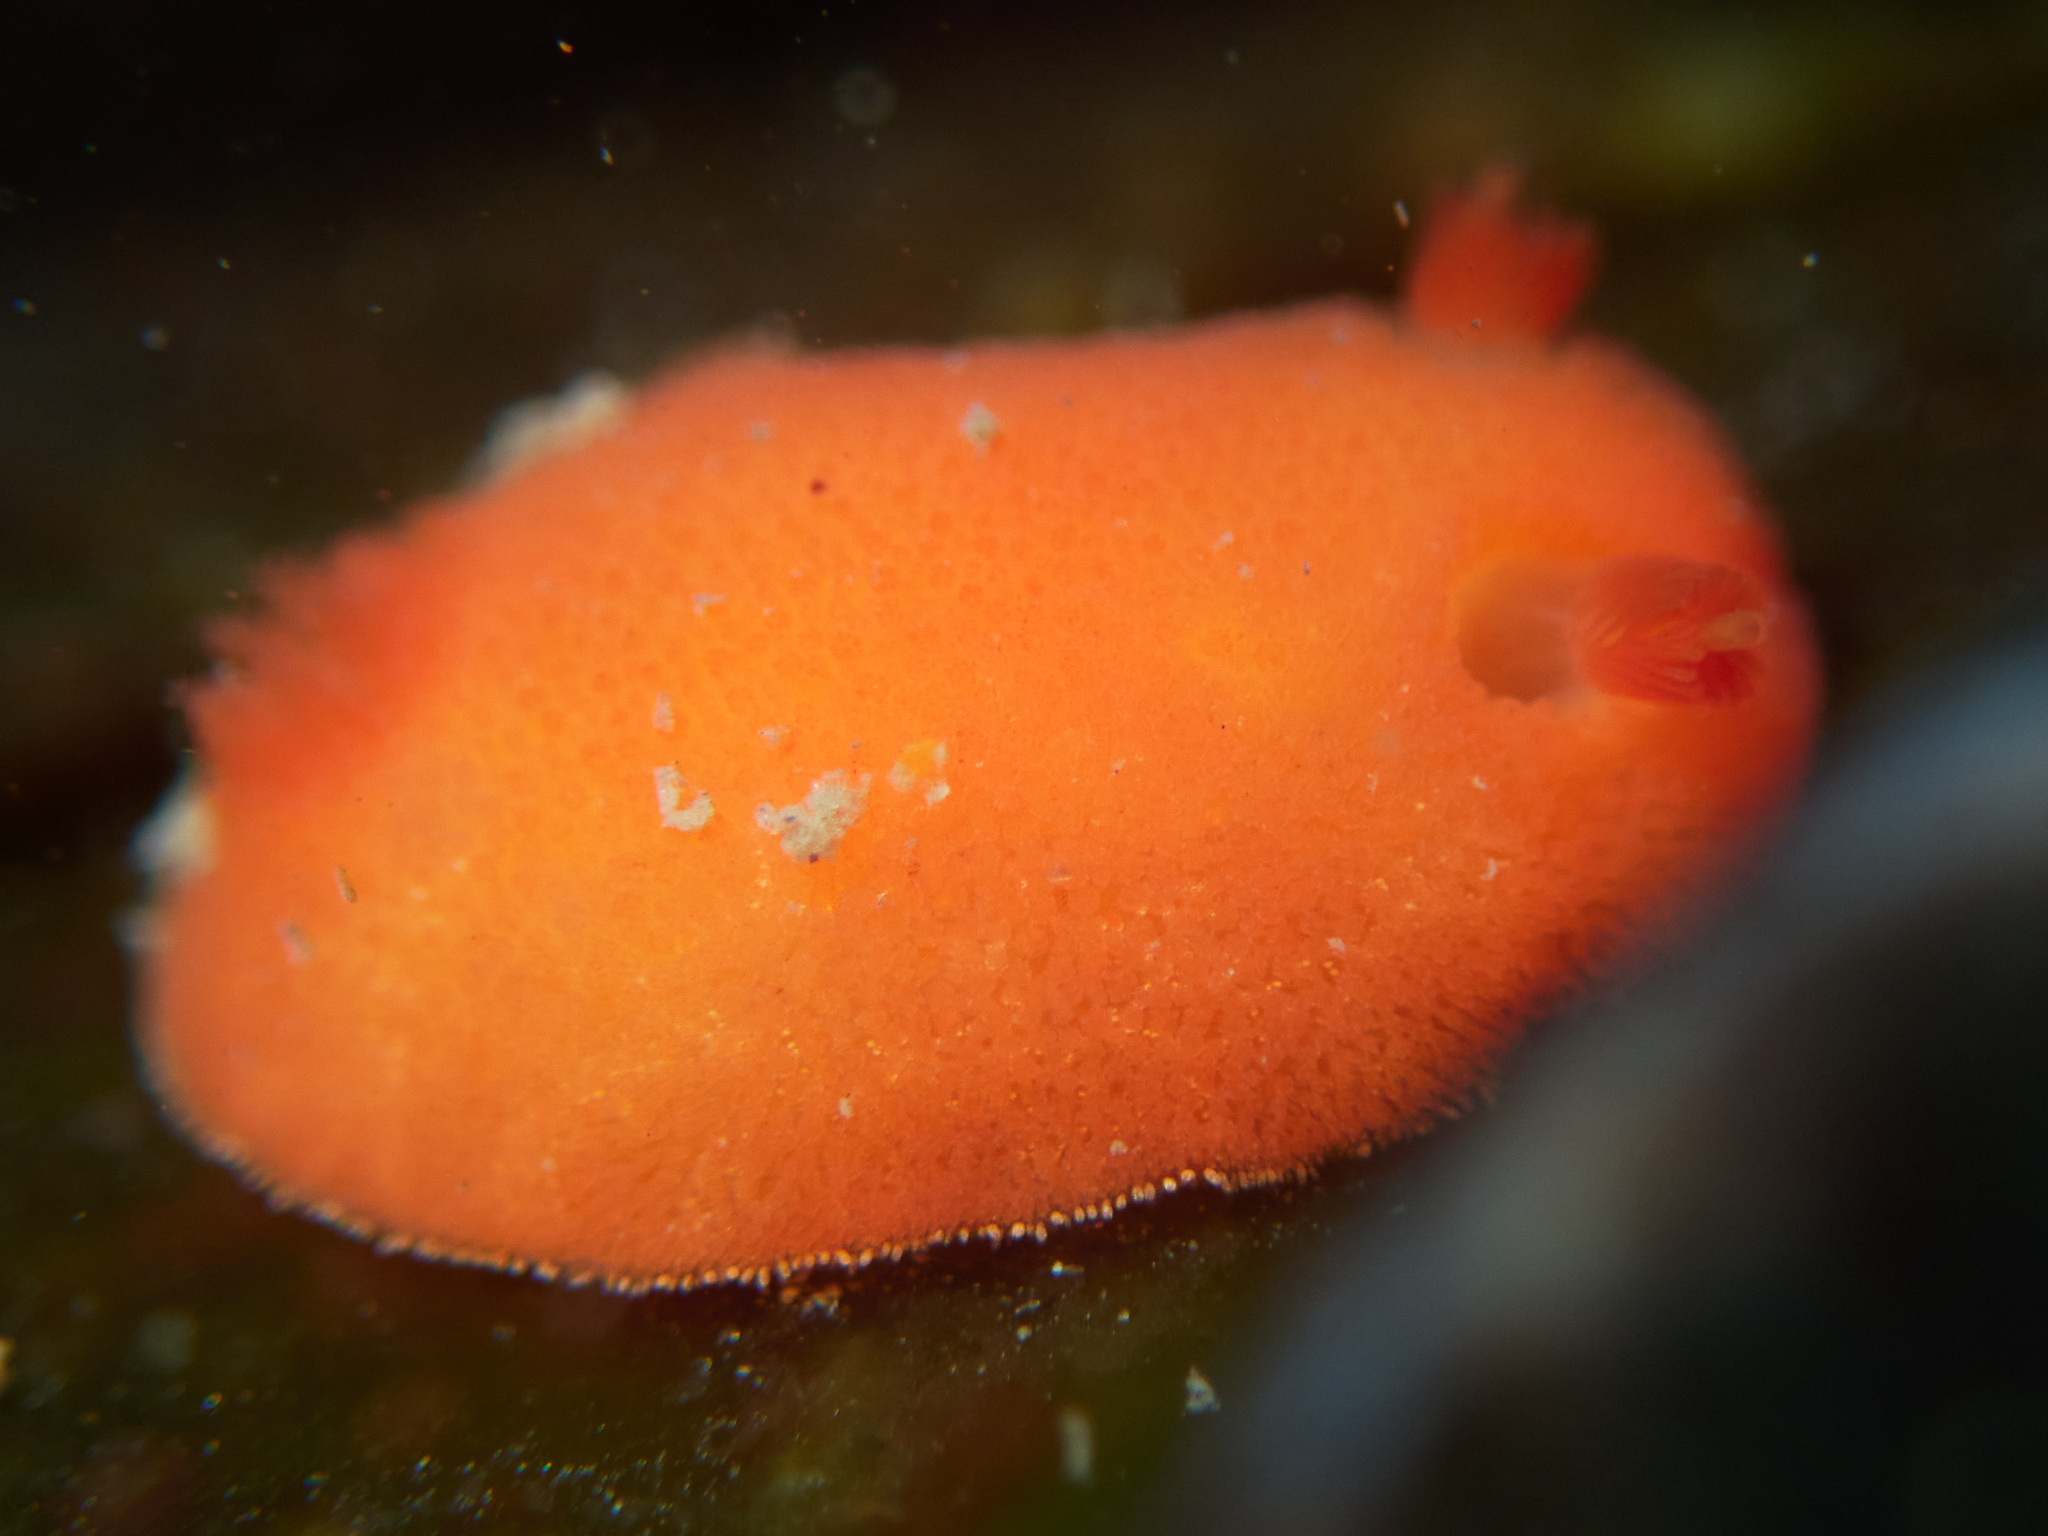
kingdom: Animalia
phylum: Mollusca
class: Gastropoda
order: Nudibranchia
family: Discodorididae
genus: Rostanga
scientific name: Rostanga pulchra
